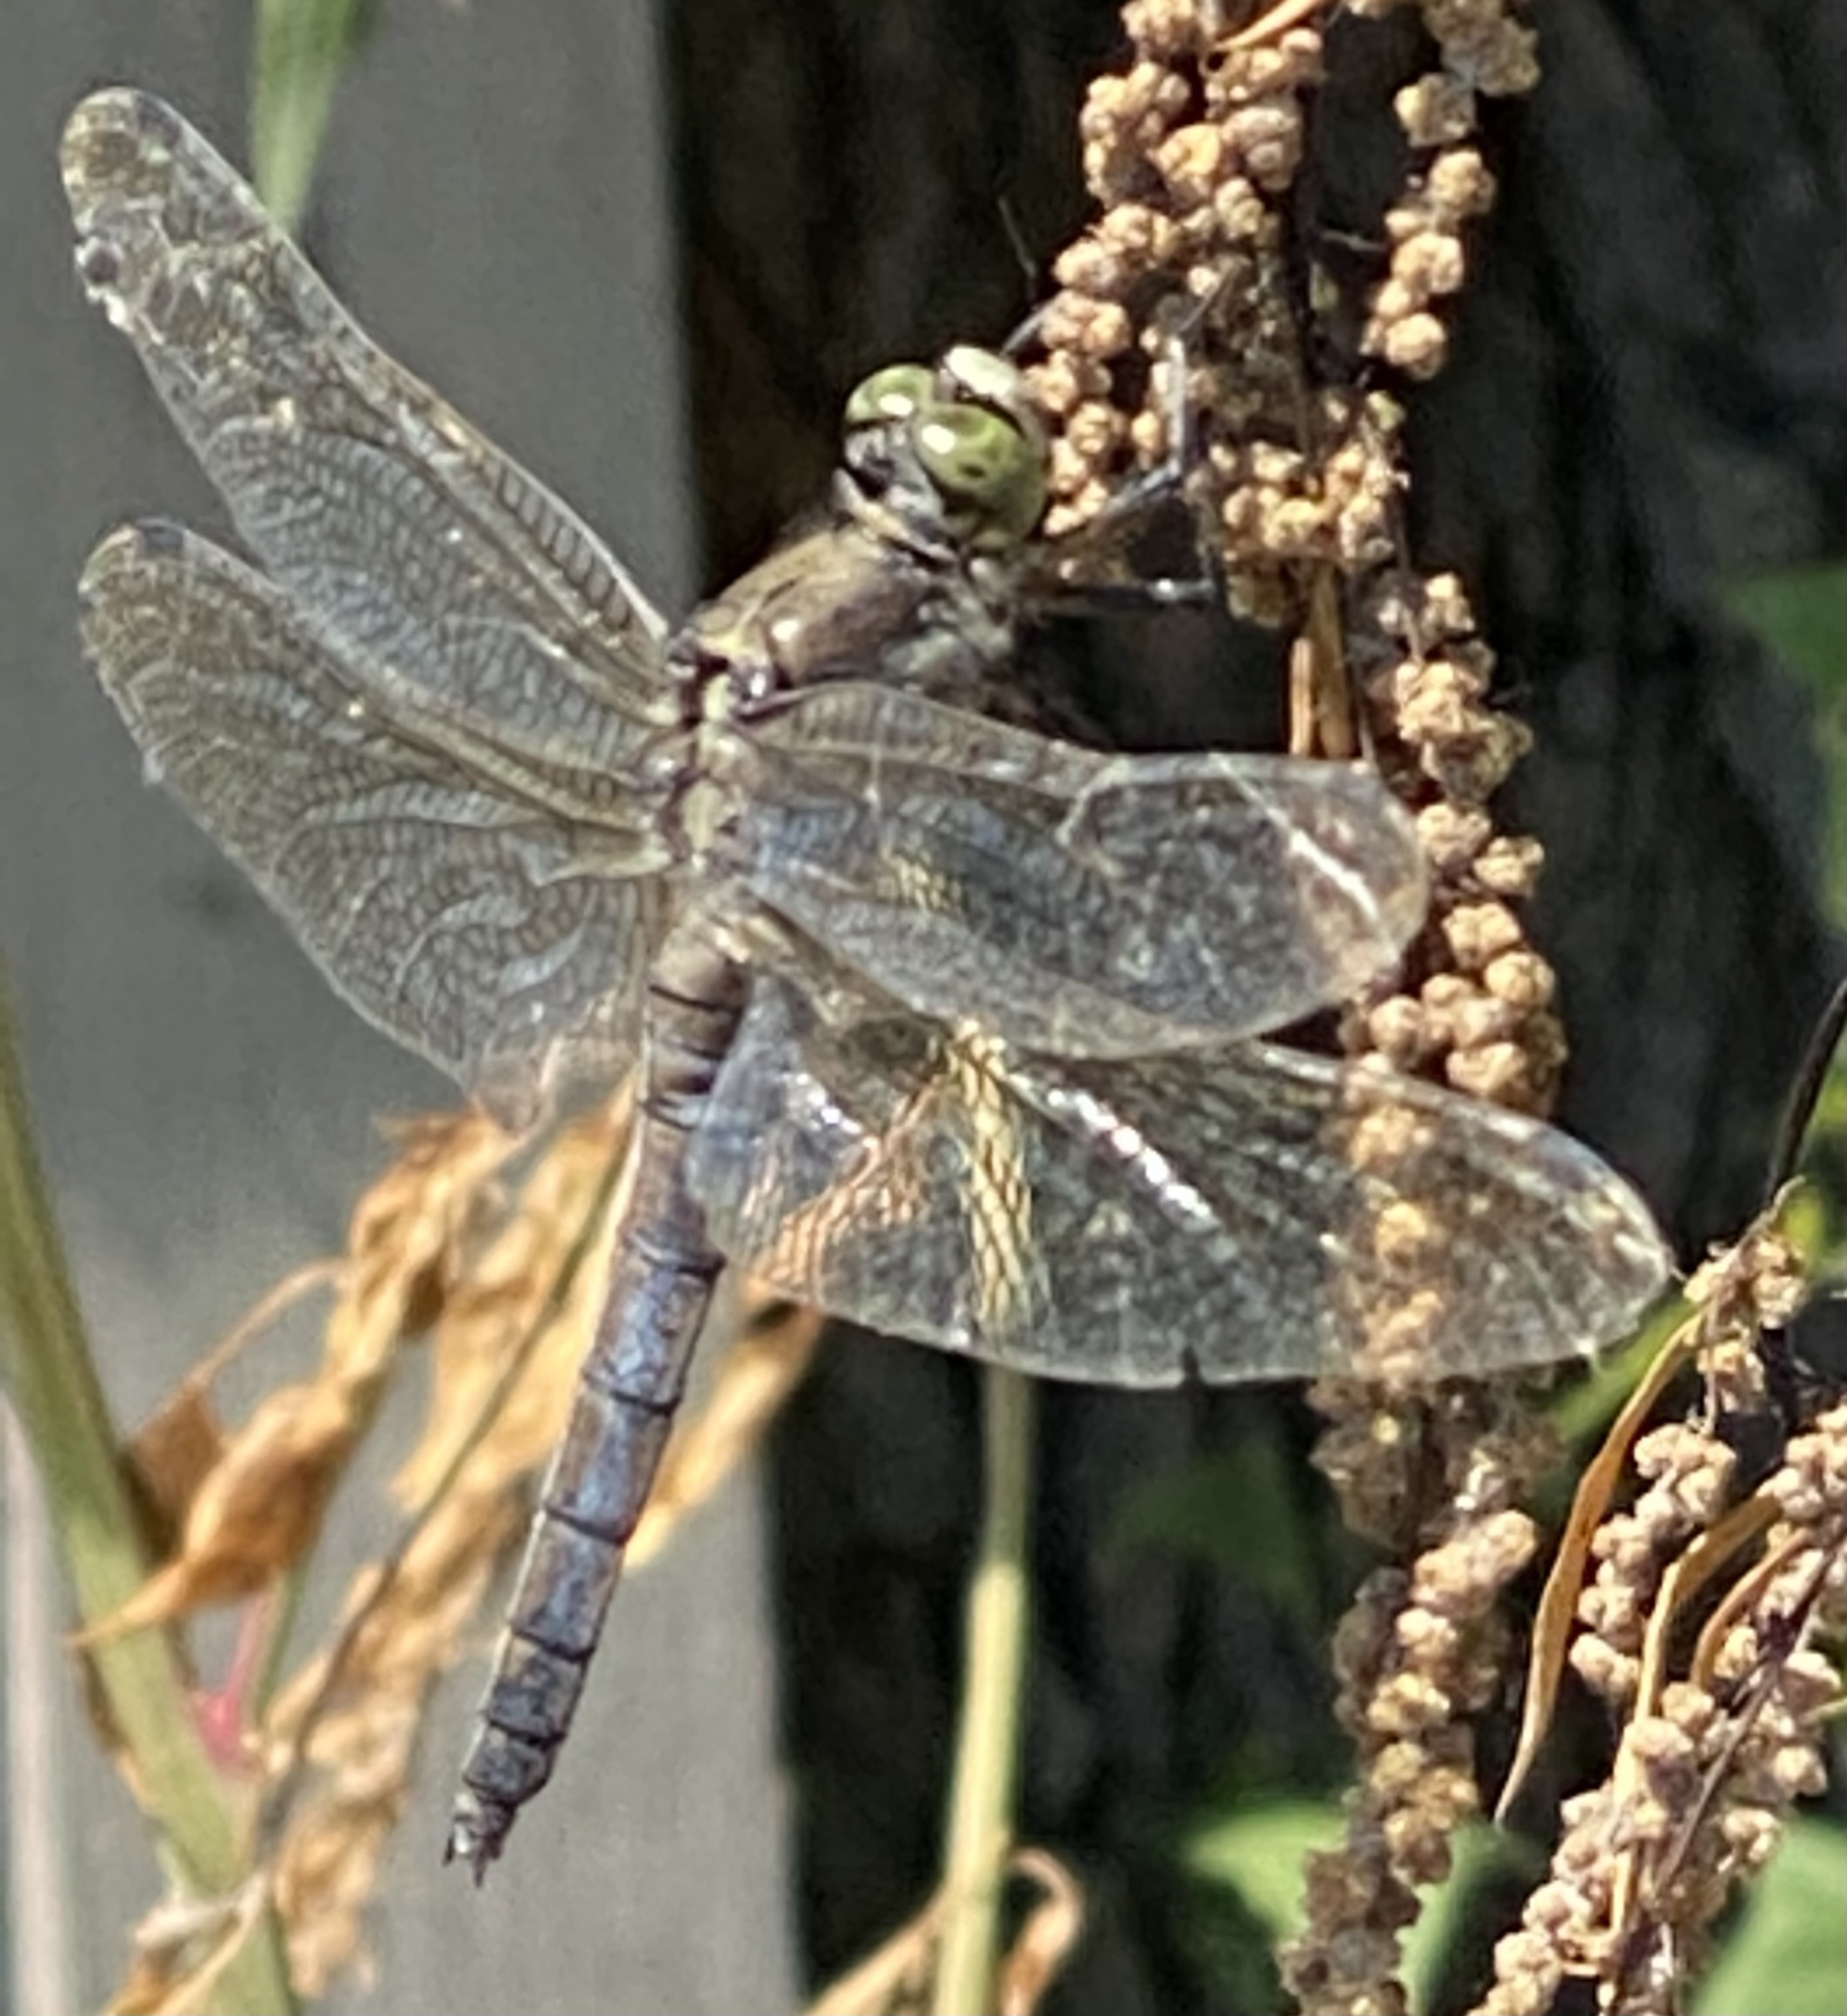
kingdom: Animalia
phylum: Arthropoda
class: Insecta
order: Odonata
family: Libellulidae
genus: Orthetrum
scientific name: Orthetrum cancellatum
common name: Black-tailed skimmer
